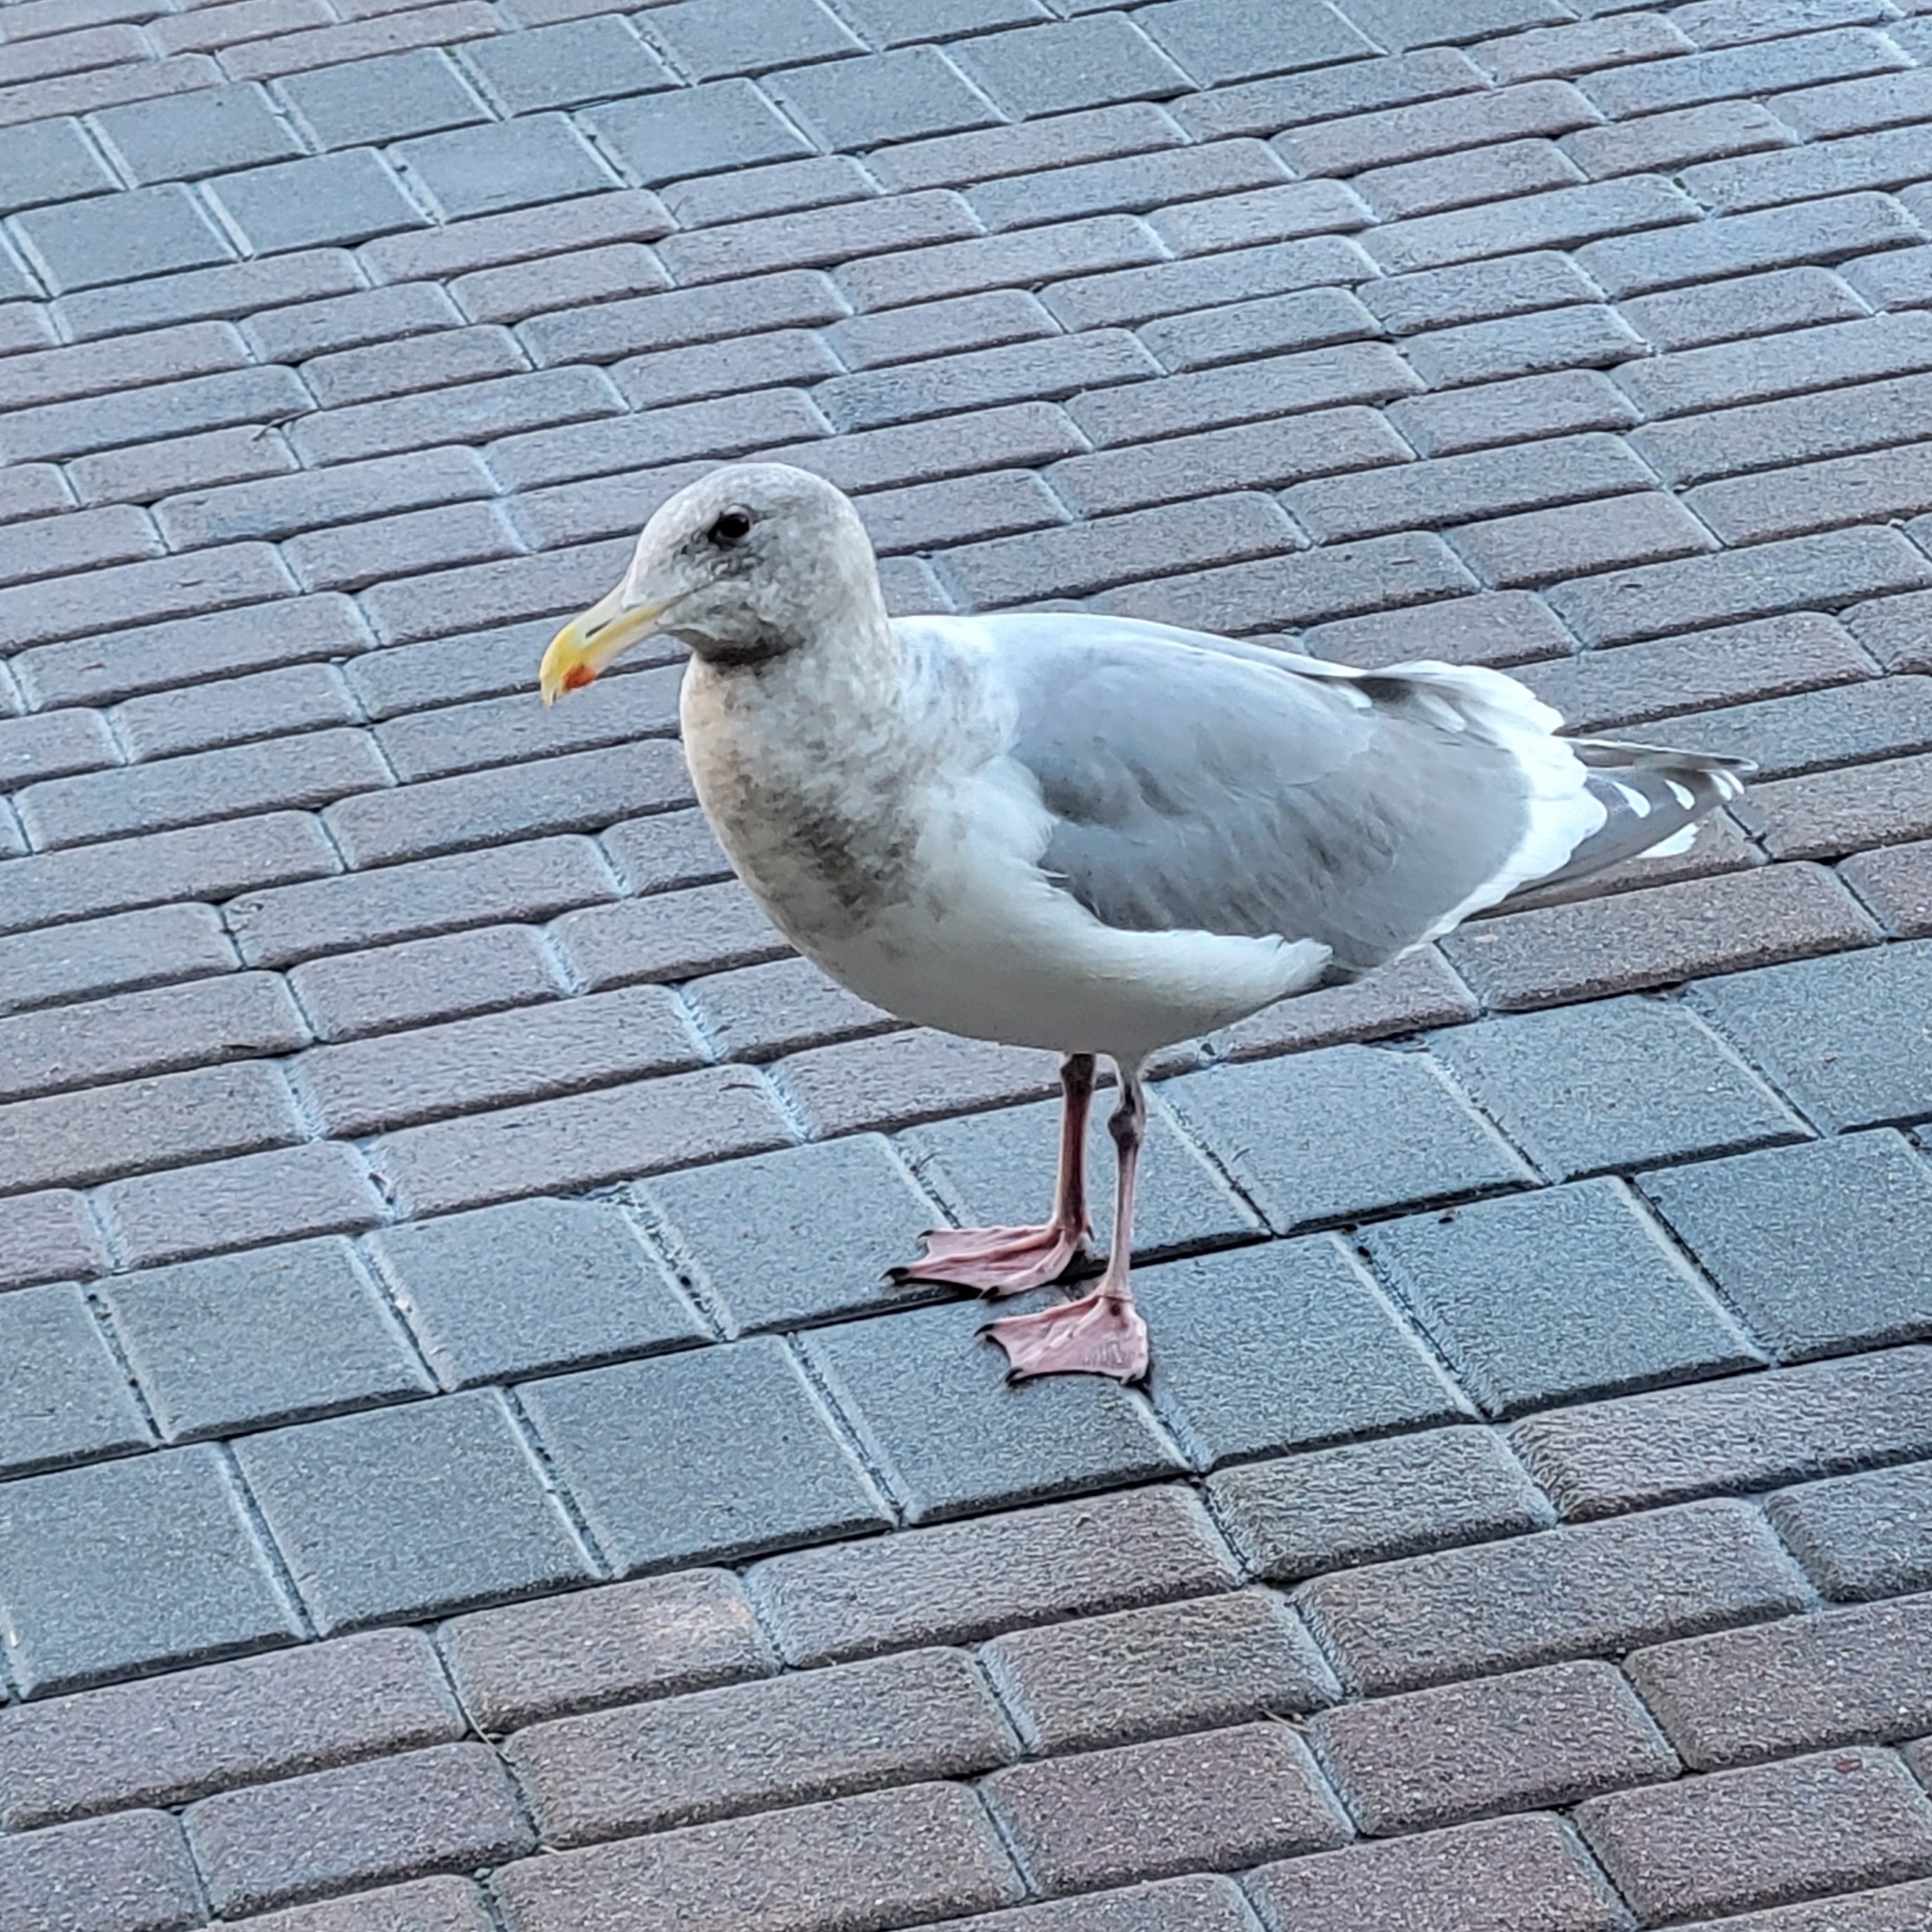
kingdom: Animalia
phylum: Chordata
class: Aves
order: Charadriiformes
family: Laridae
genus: Larus
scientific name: Larus
